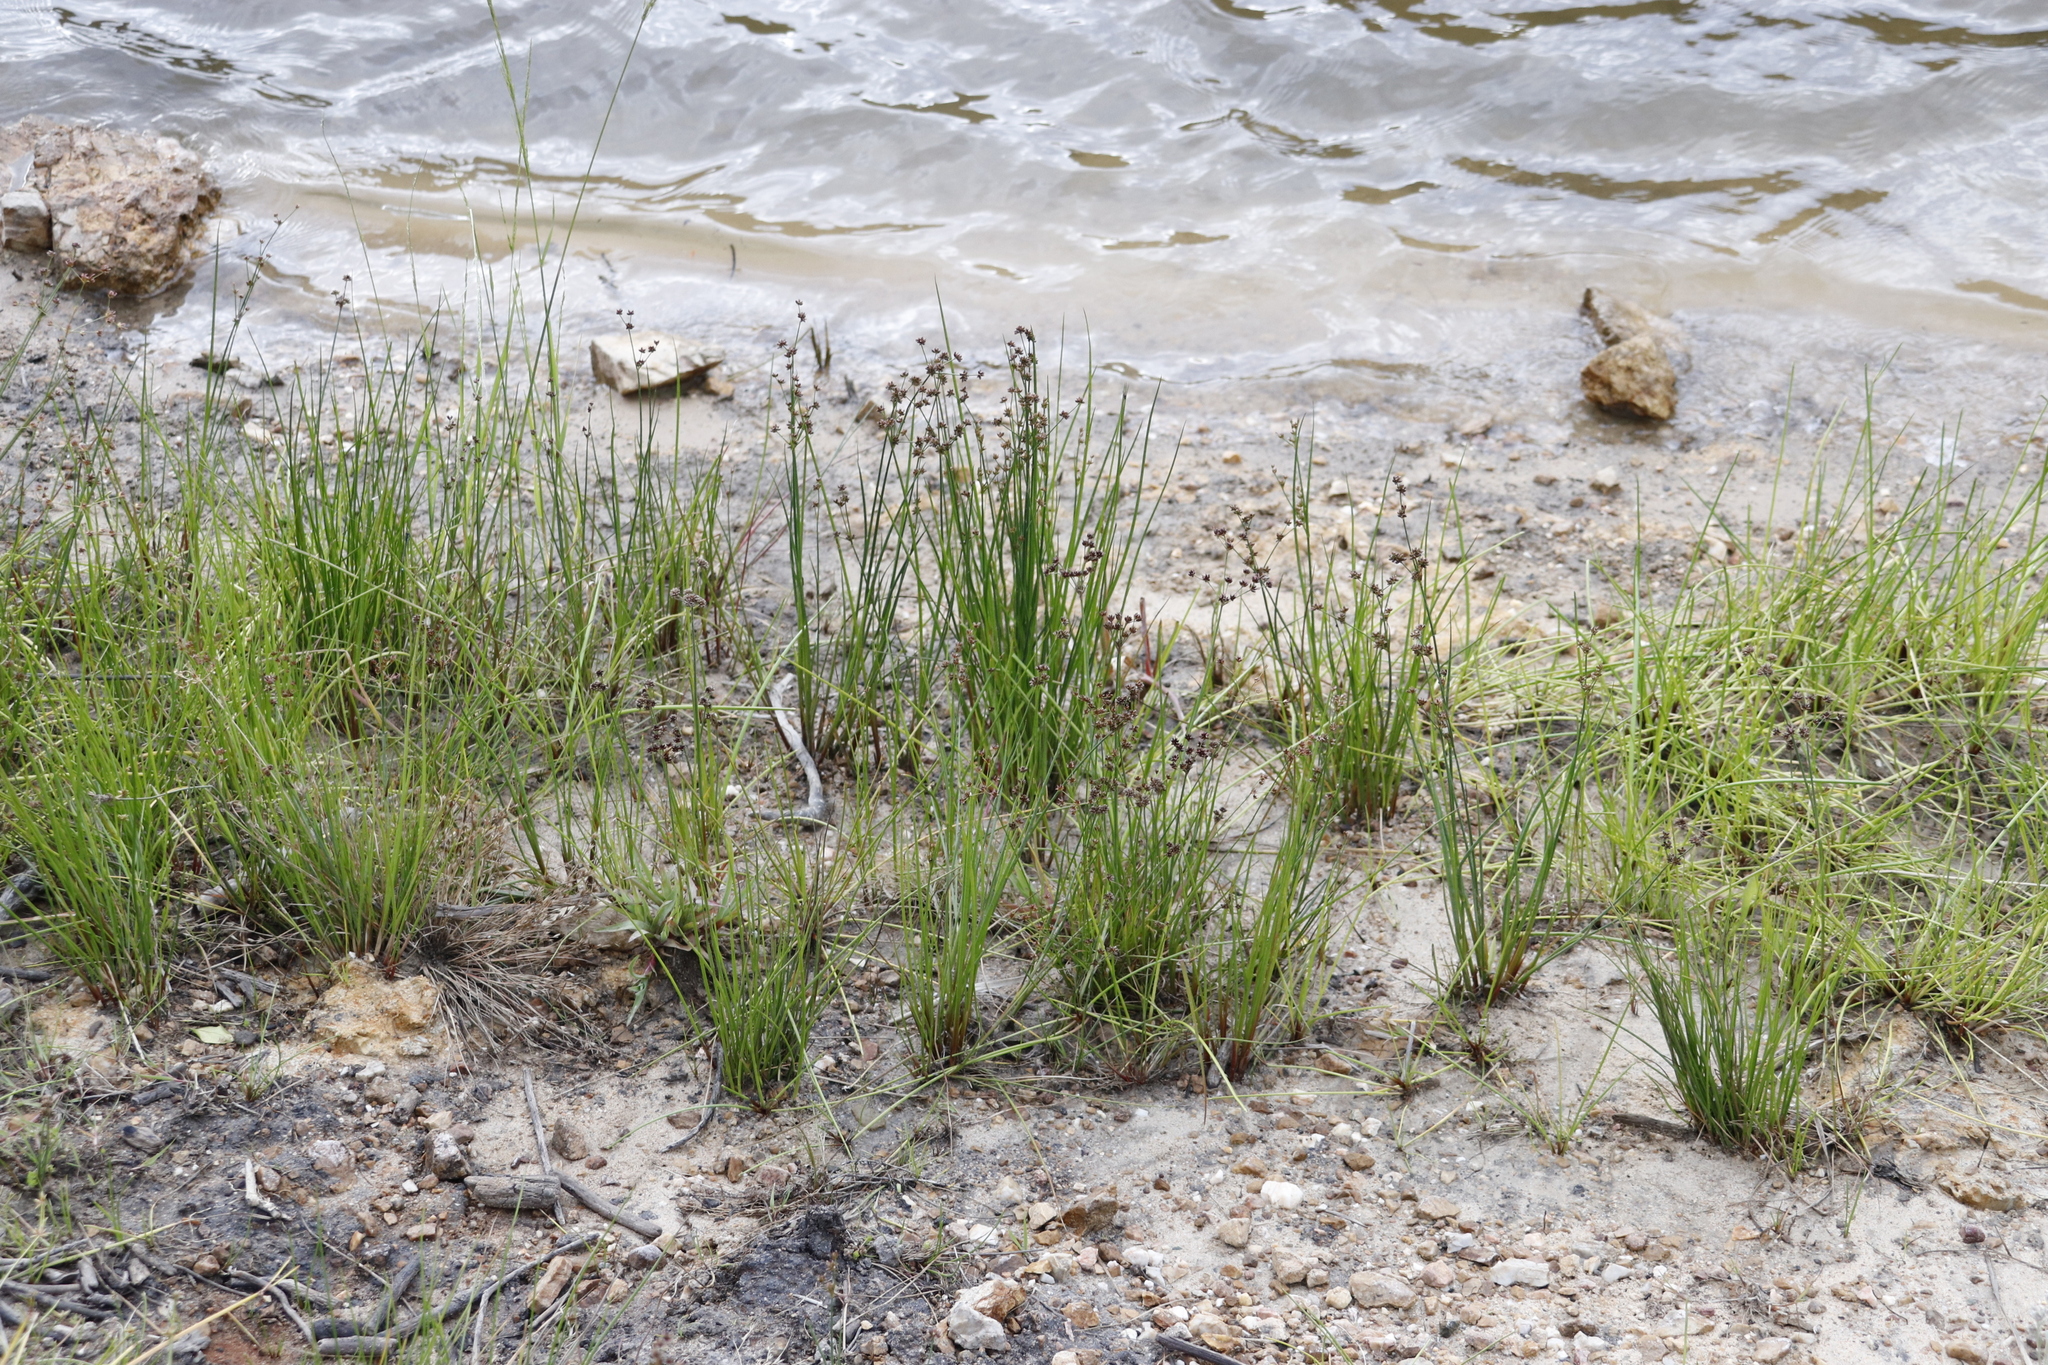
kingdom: Plantae
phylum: Tracheophyta
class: Liliopsida
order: Poales
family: Juncaceae
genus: Juncus
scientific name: Juncus exsertus
